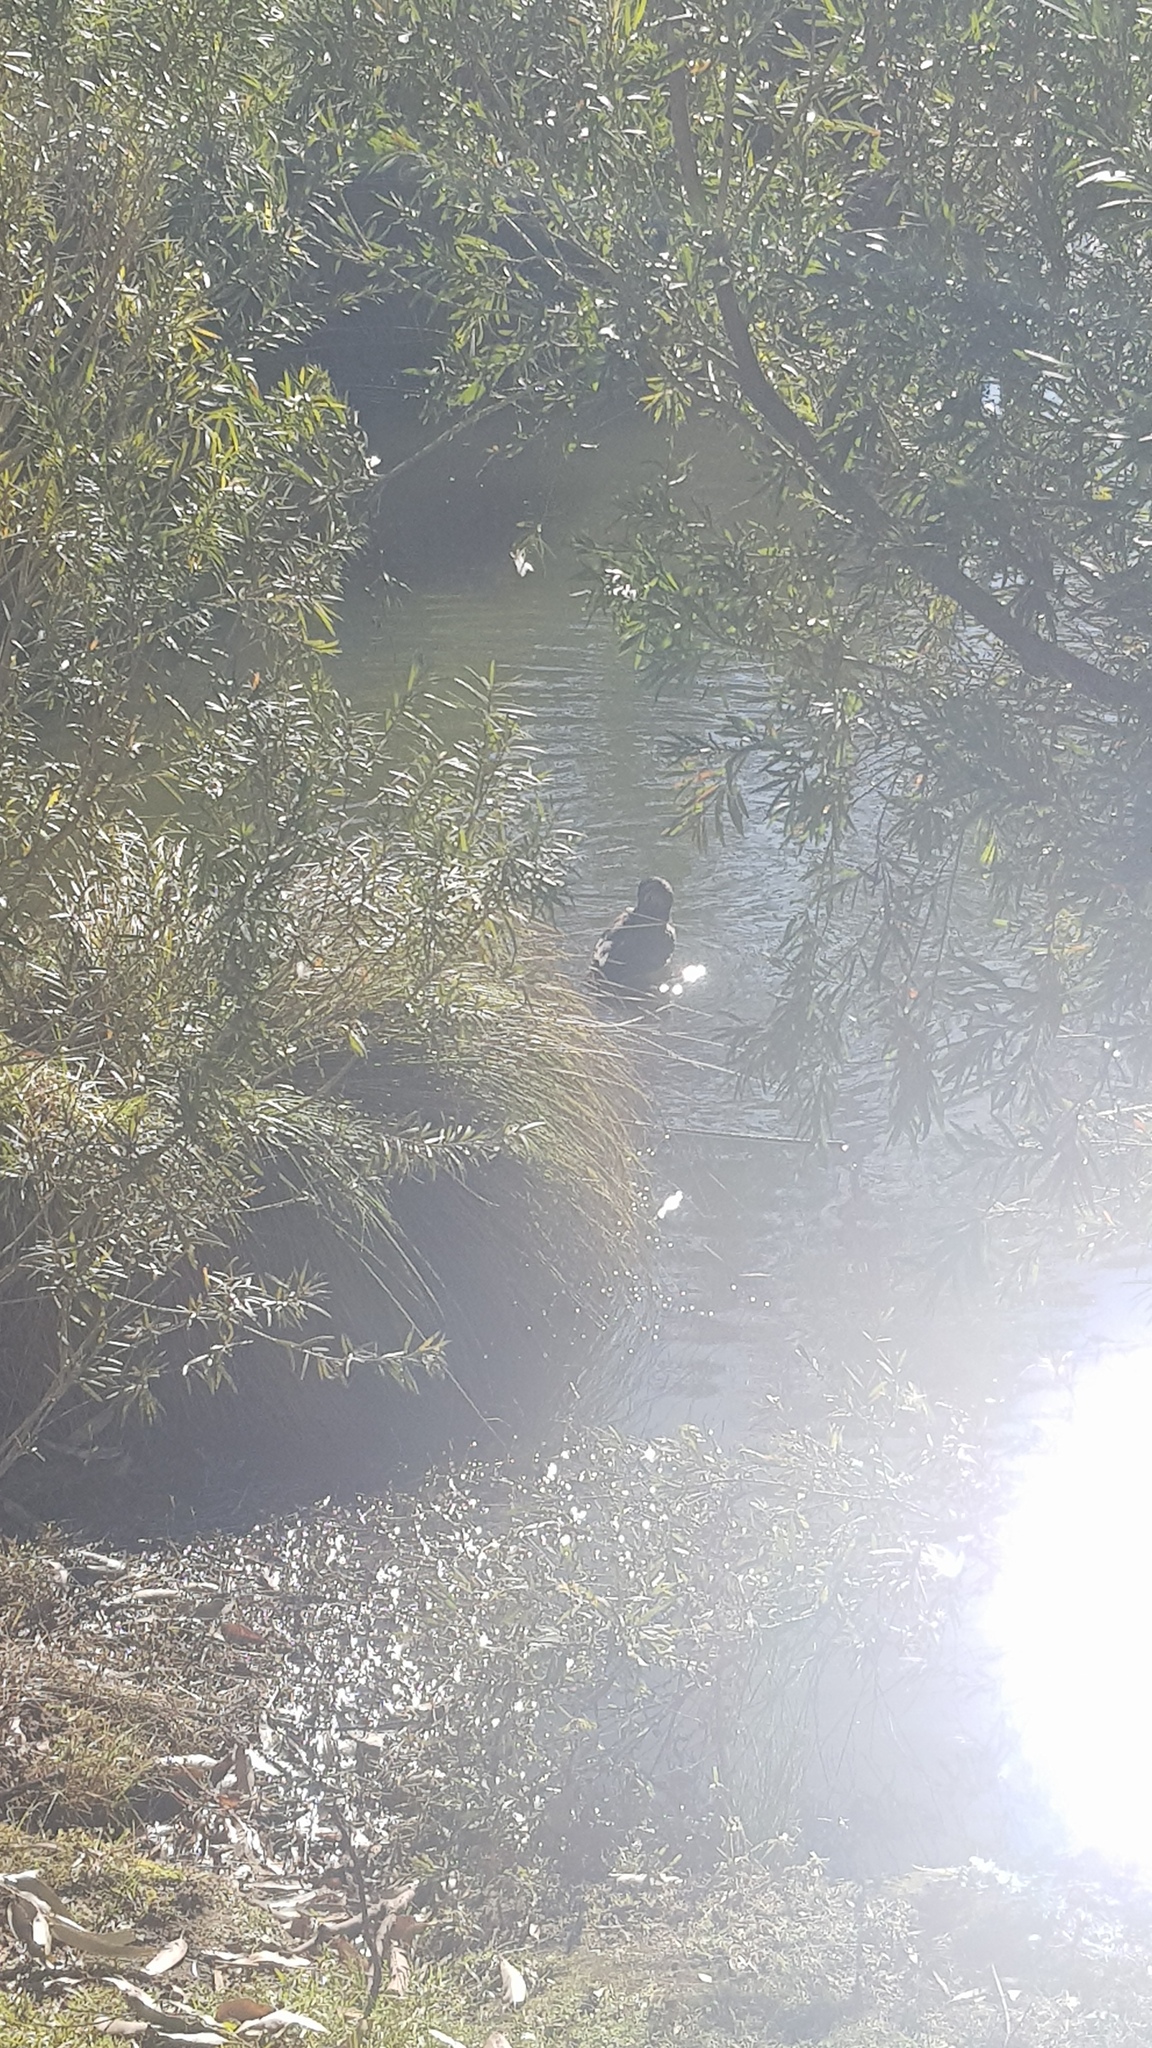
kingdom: Animalia
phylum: Chordata
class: Aves
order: Anseriformes
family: Anatidae
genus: Anas
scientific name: Anas superciliosa
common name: Pacific black duck
